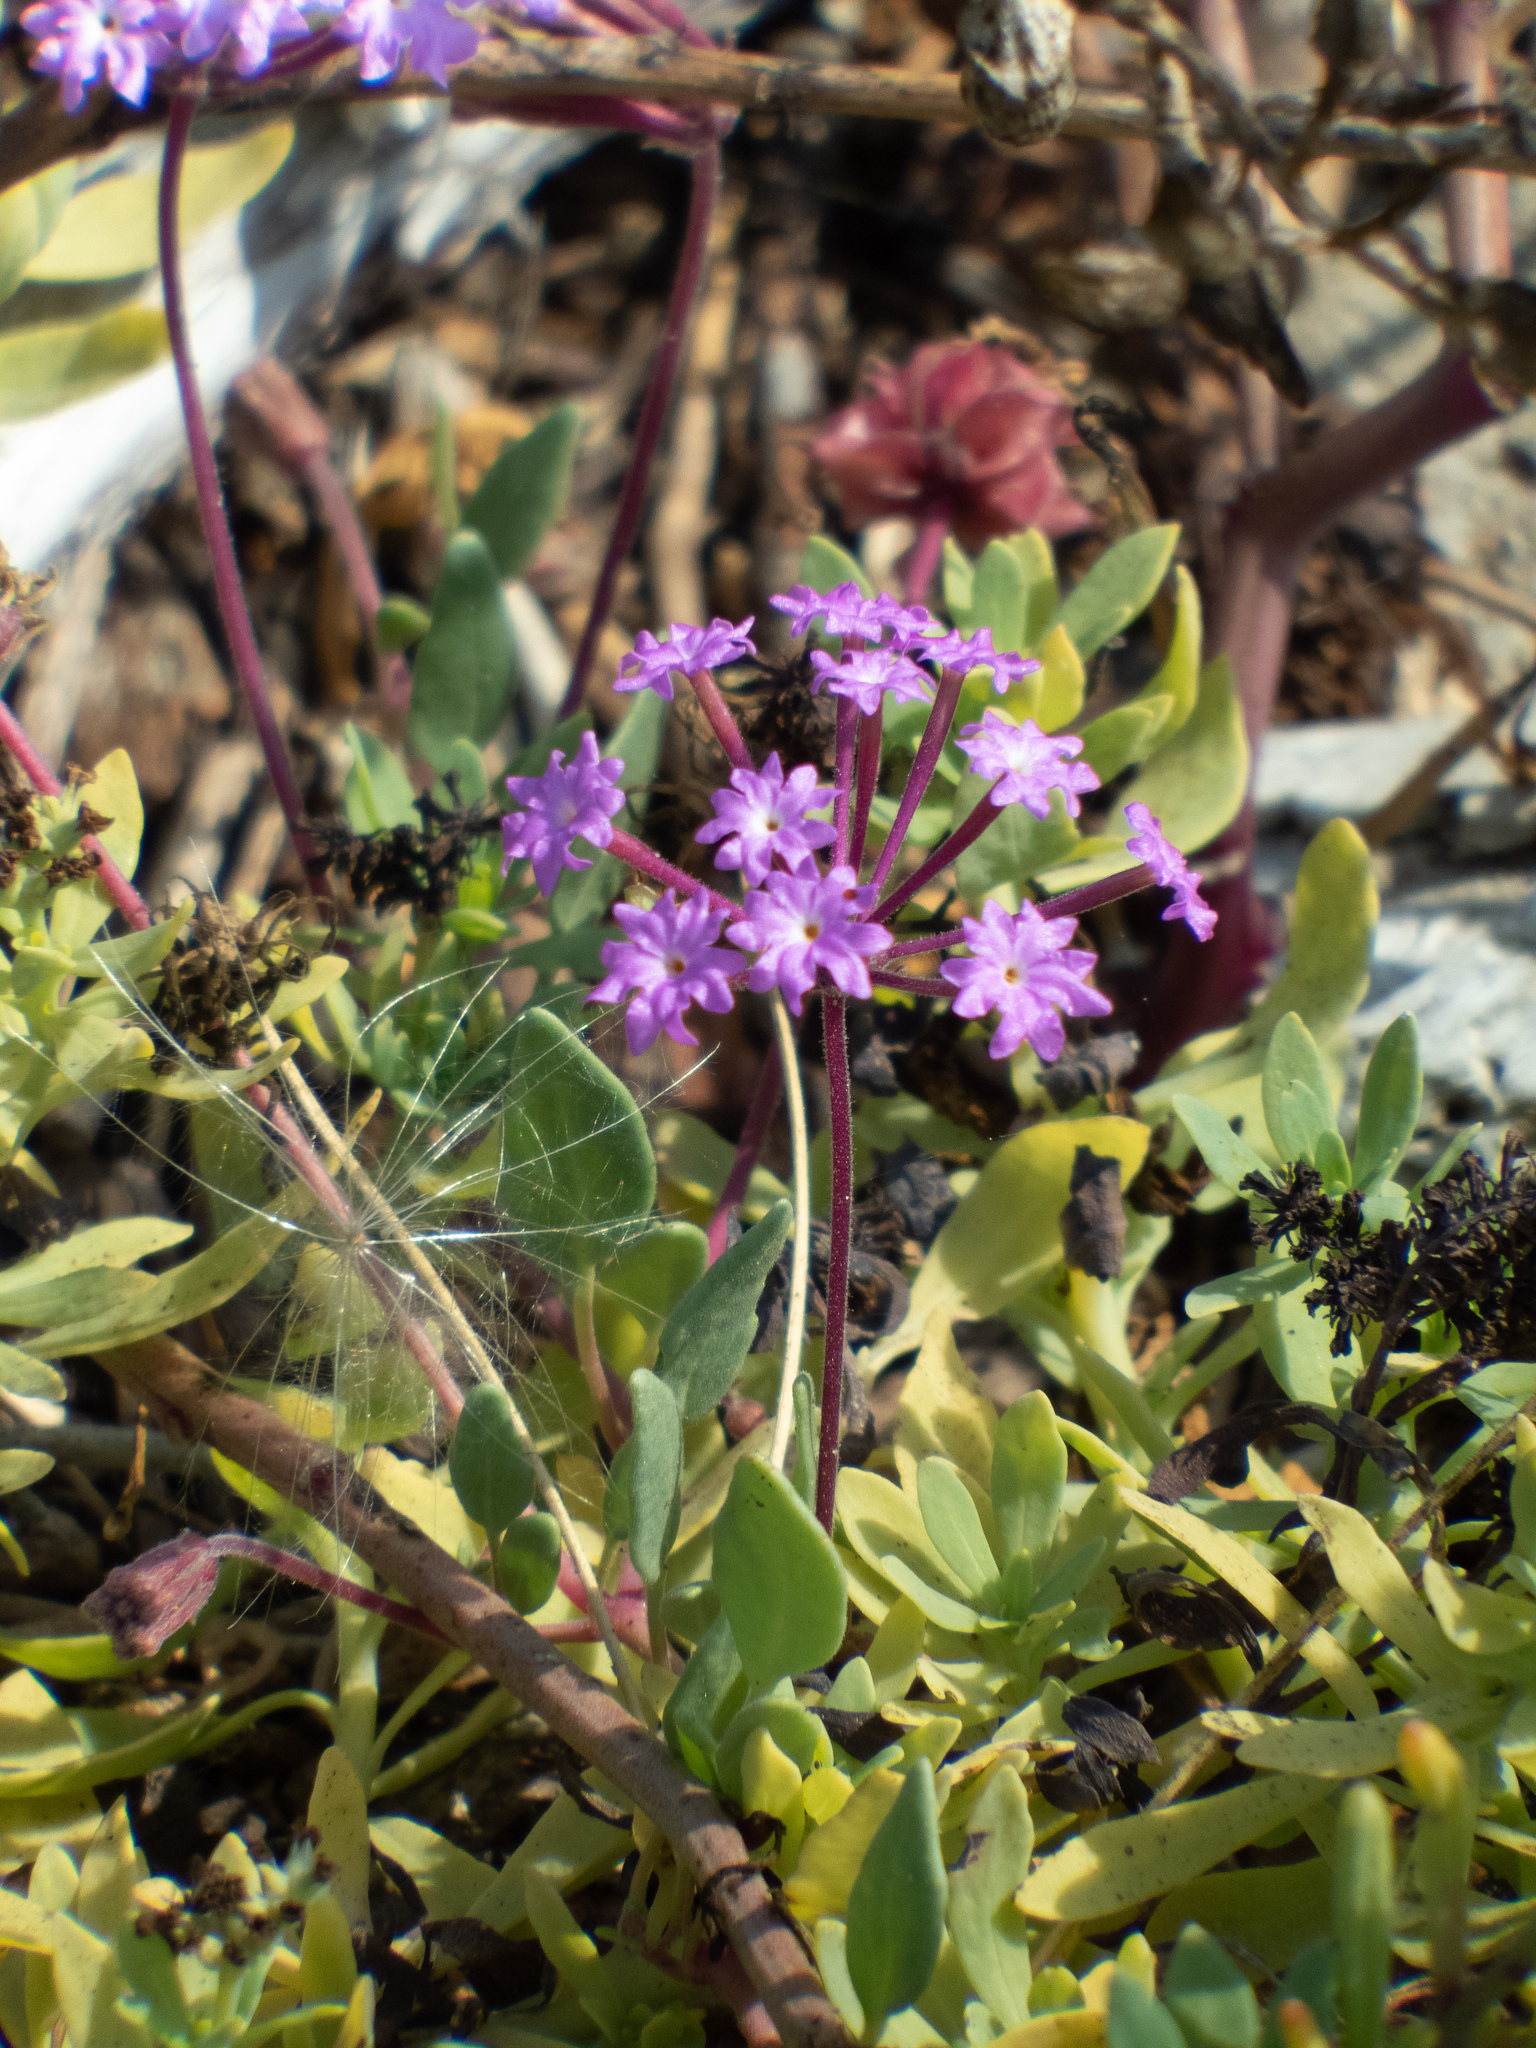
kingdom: Plantae
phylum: Tracheophyta
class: Magnoliopsida
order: Caryophyllales
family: Nyctaginaceae
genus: Abronia
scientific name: Abronia umbellata
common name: Sand-verbena
